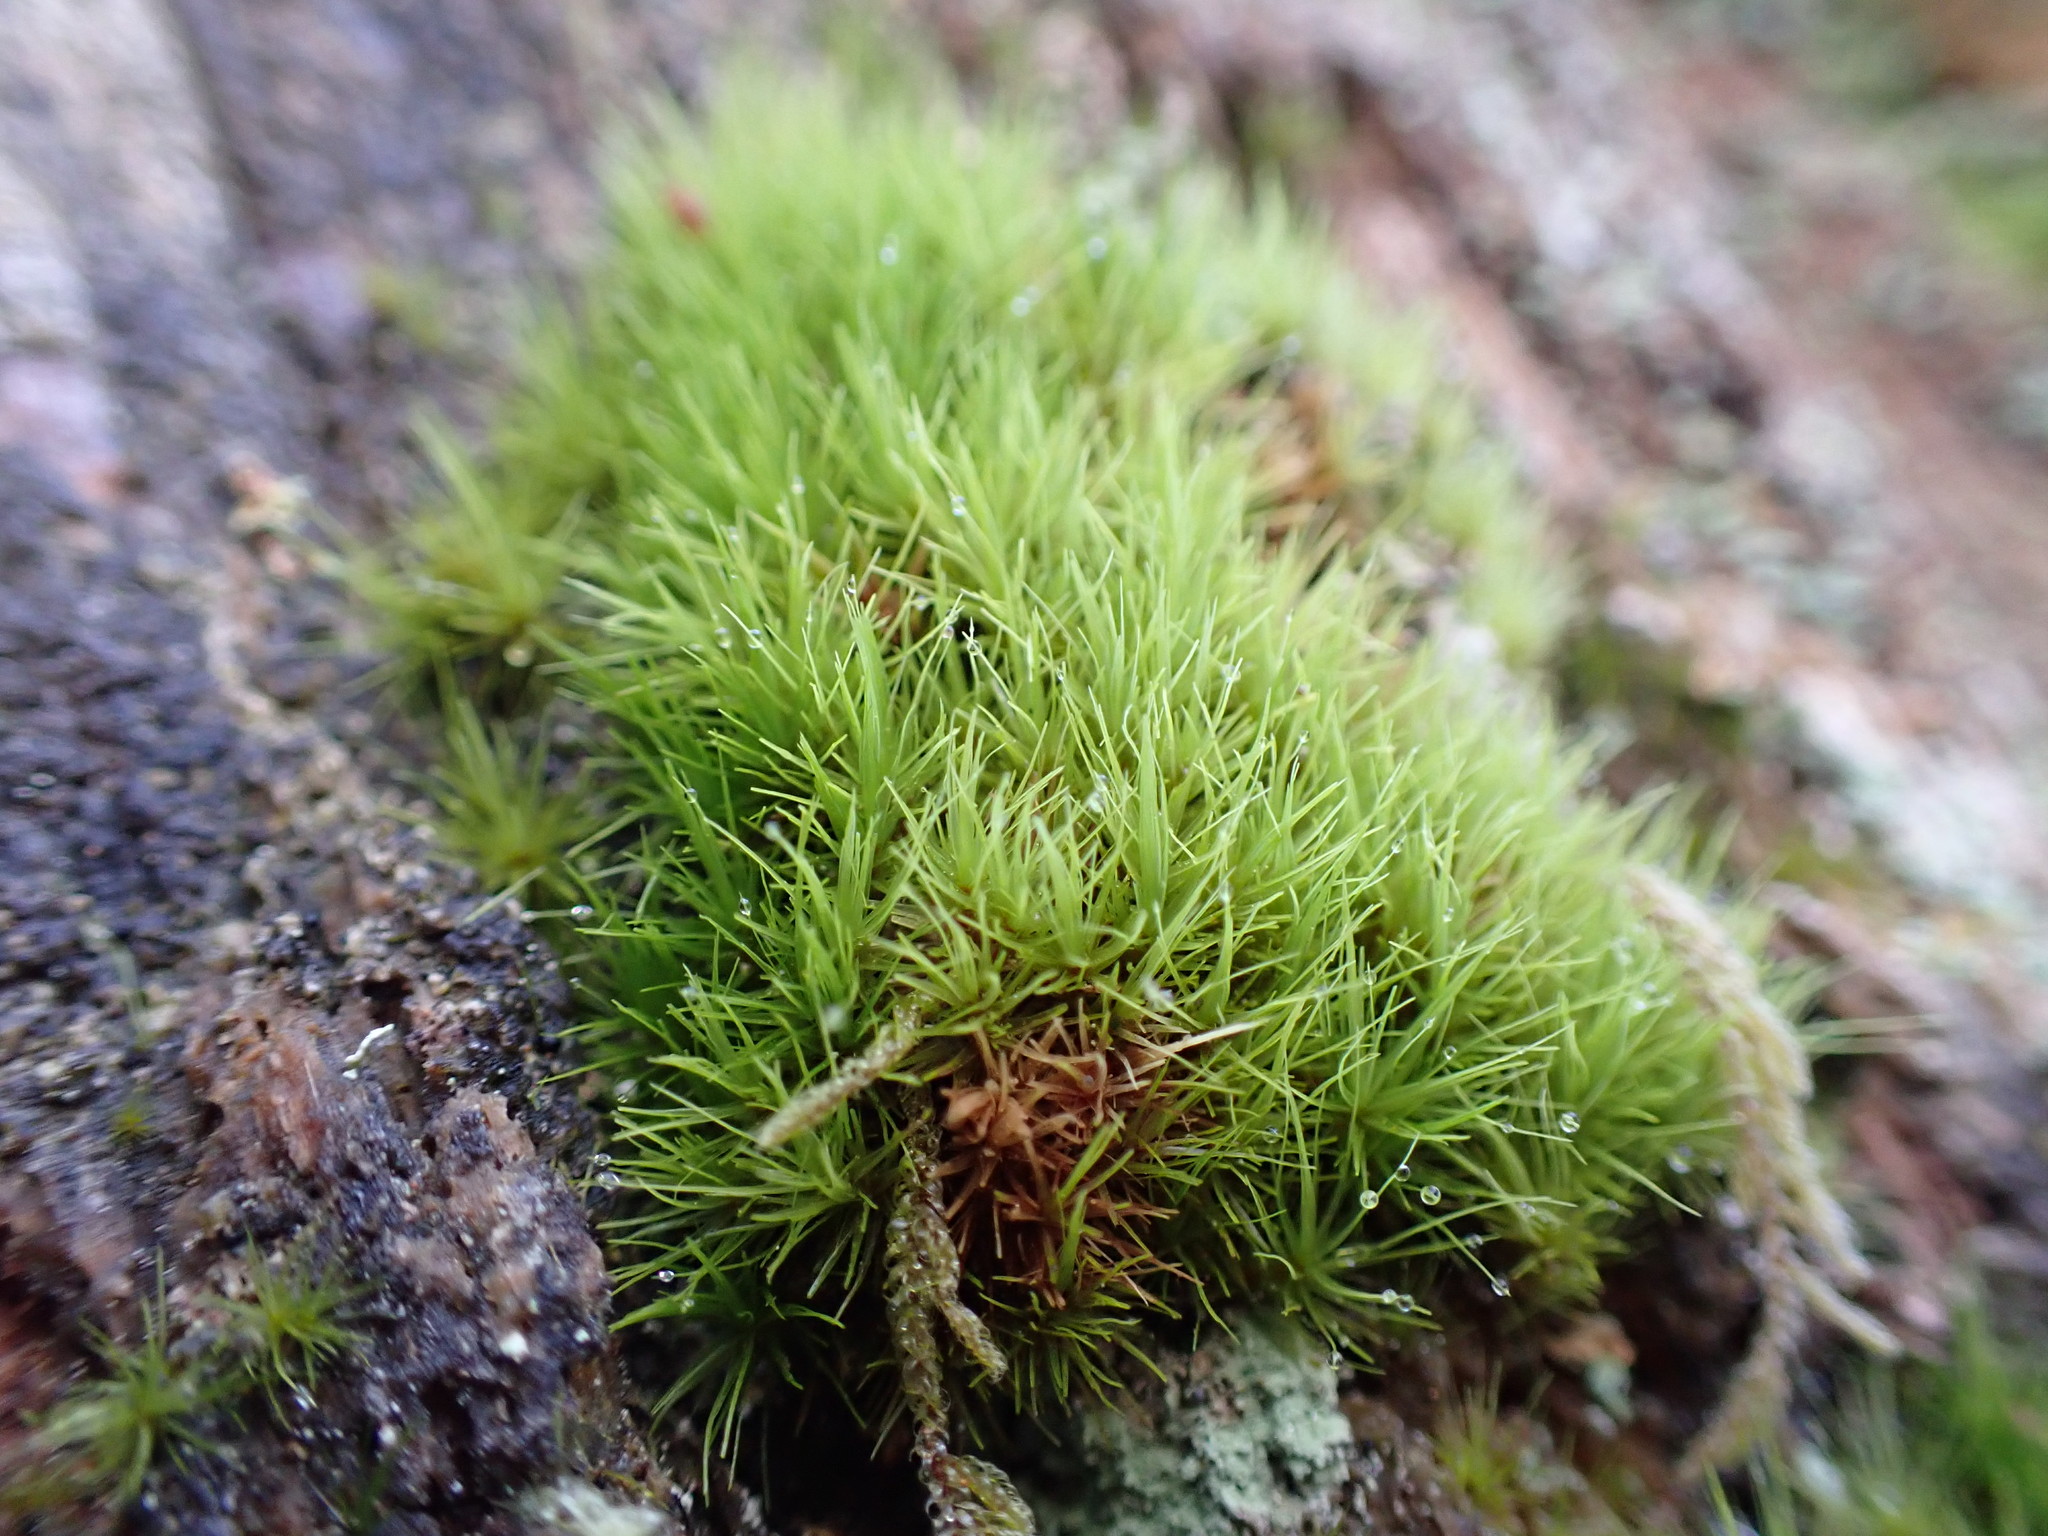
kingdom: Plantae
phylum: Bryophyta
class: Bryopsida
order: Dicranales
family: Dicranaceae
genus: Orthodicranum
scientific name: Orthodicranum tauricum
